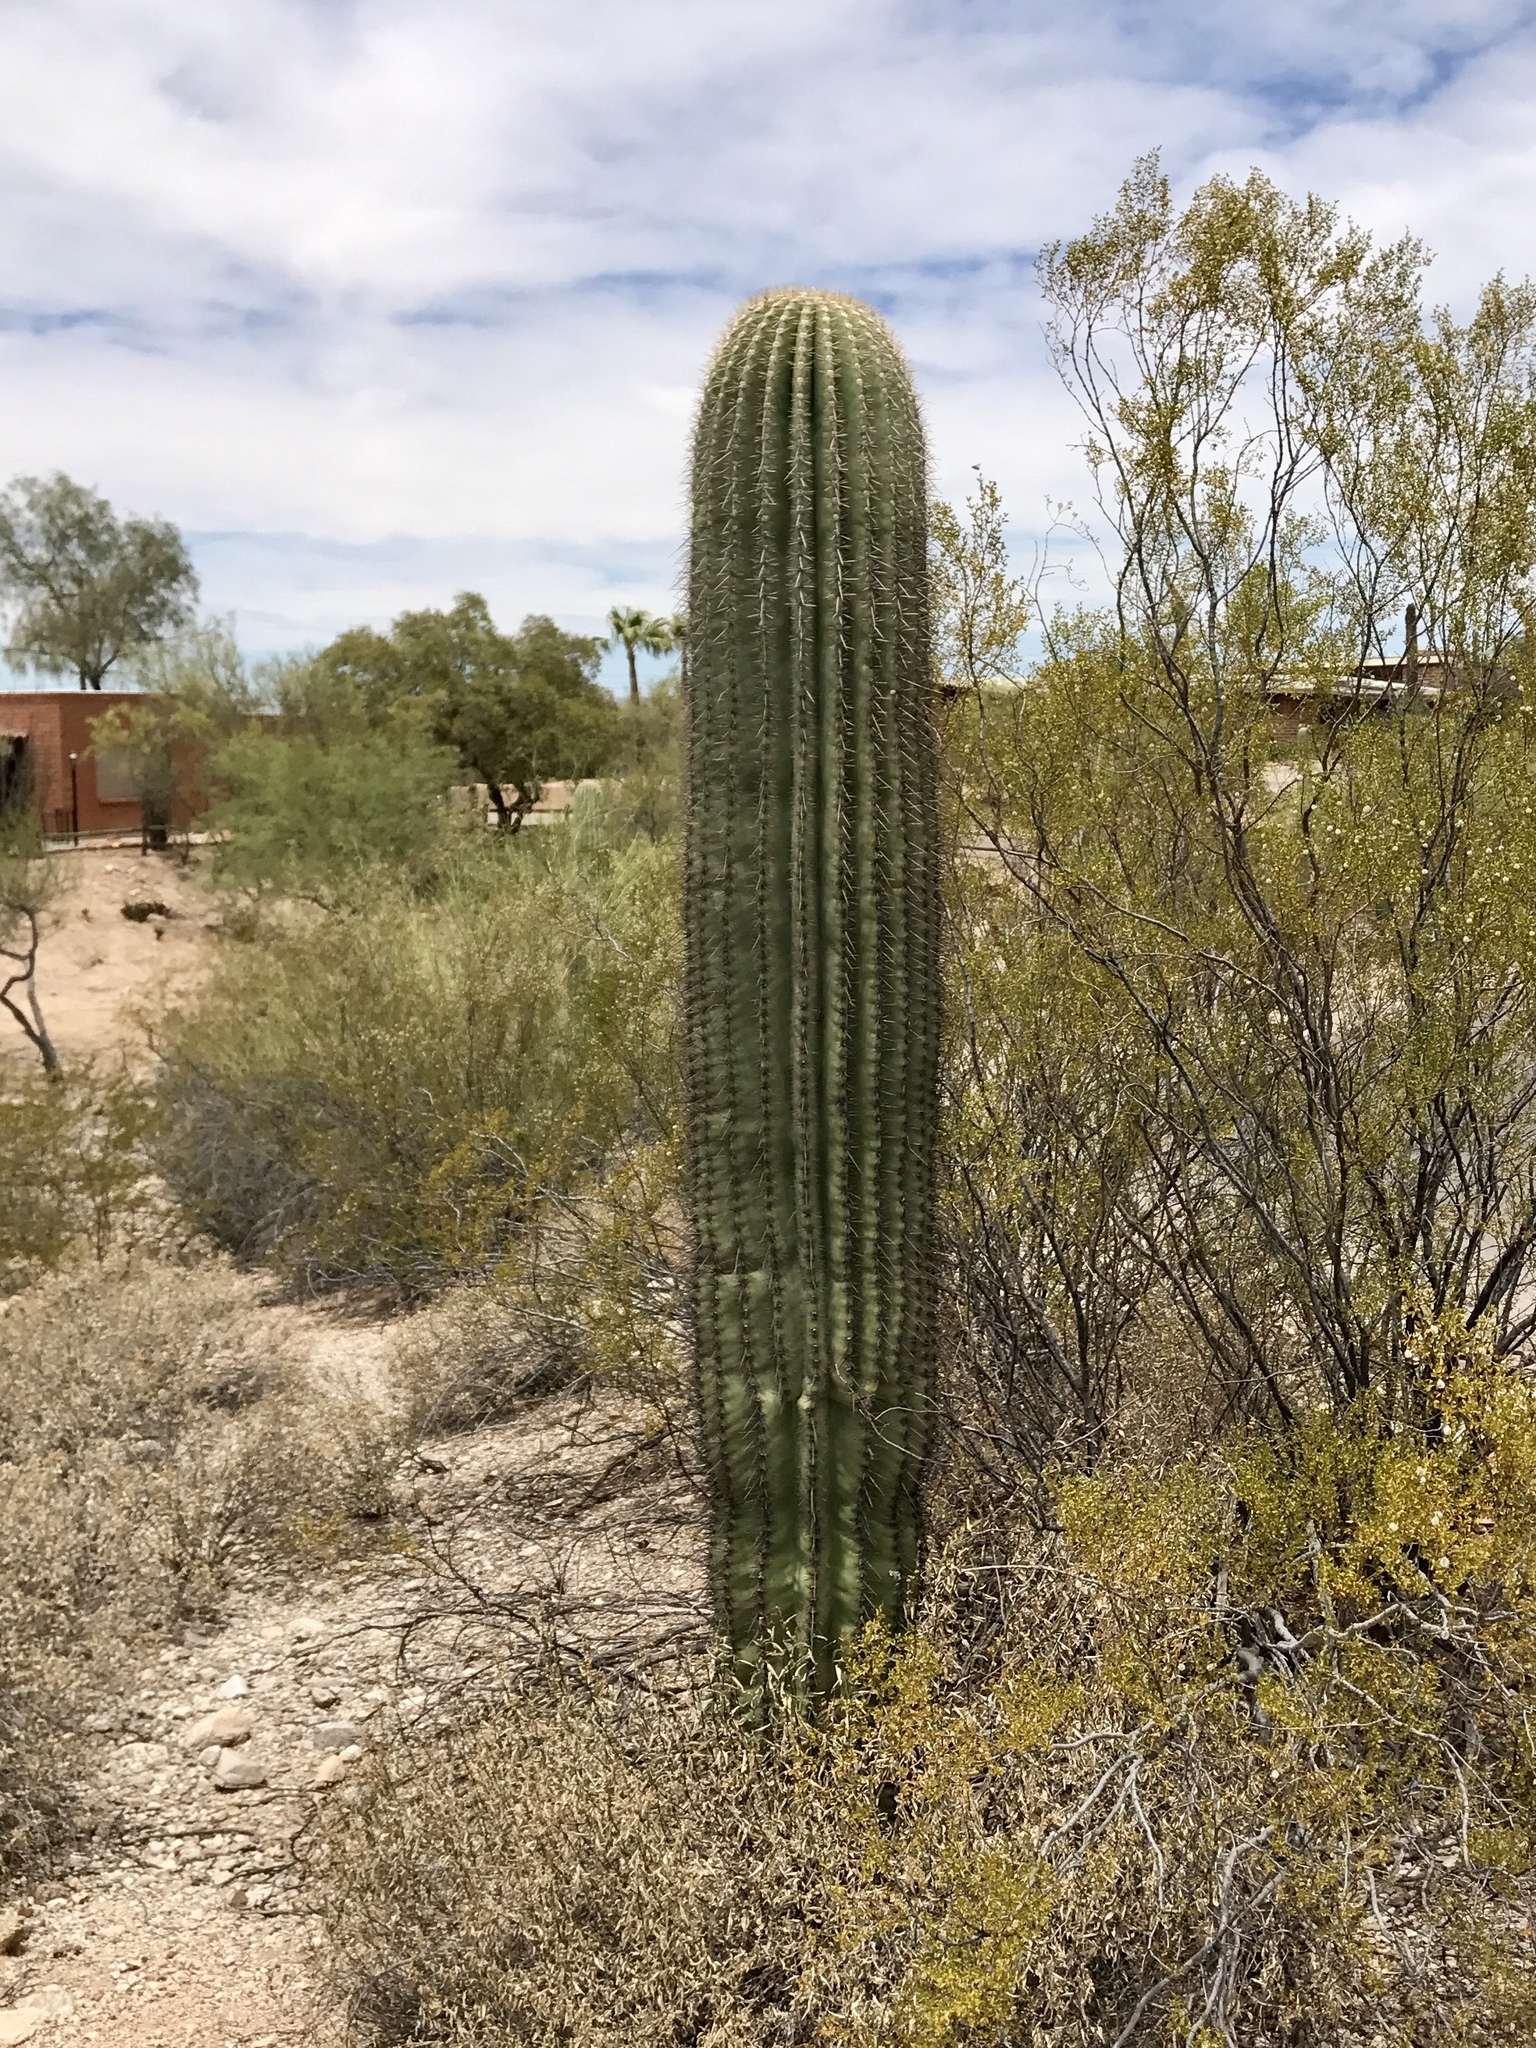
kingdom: Plantae
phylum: Tracheophyta
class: Magnoliopsida
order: Caryophyllales
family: Cactaceae
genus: Carnegiea
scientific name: Carnegiea gigantea
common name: Saguaro
